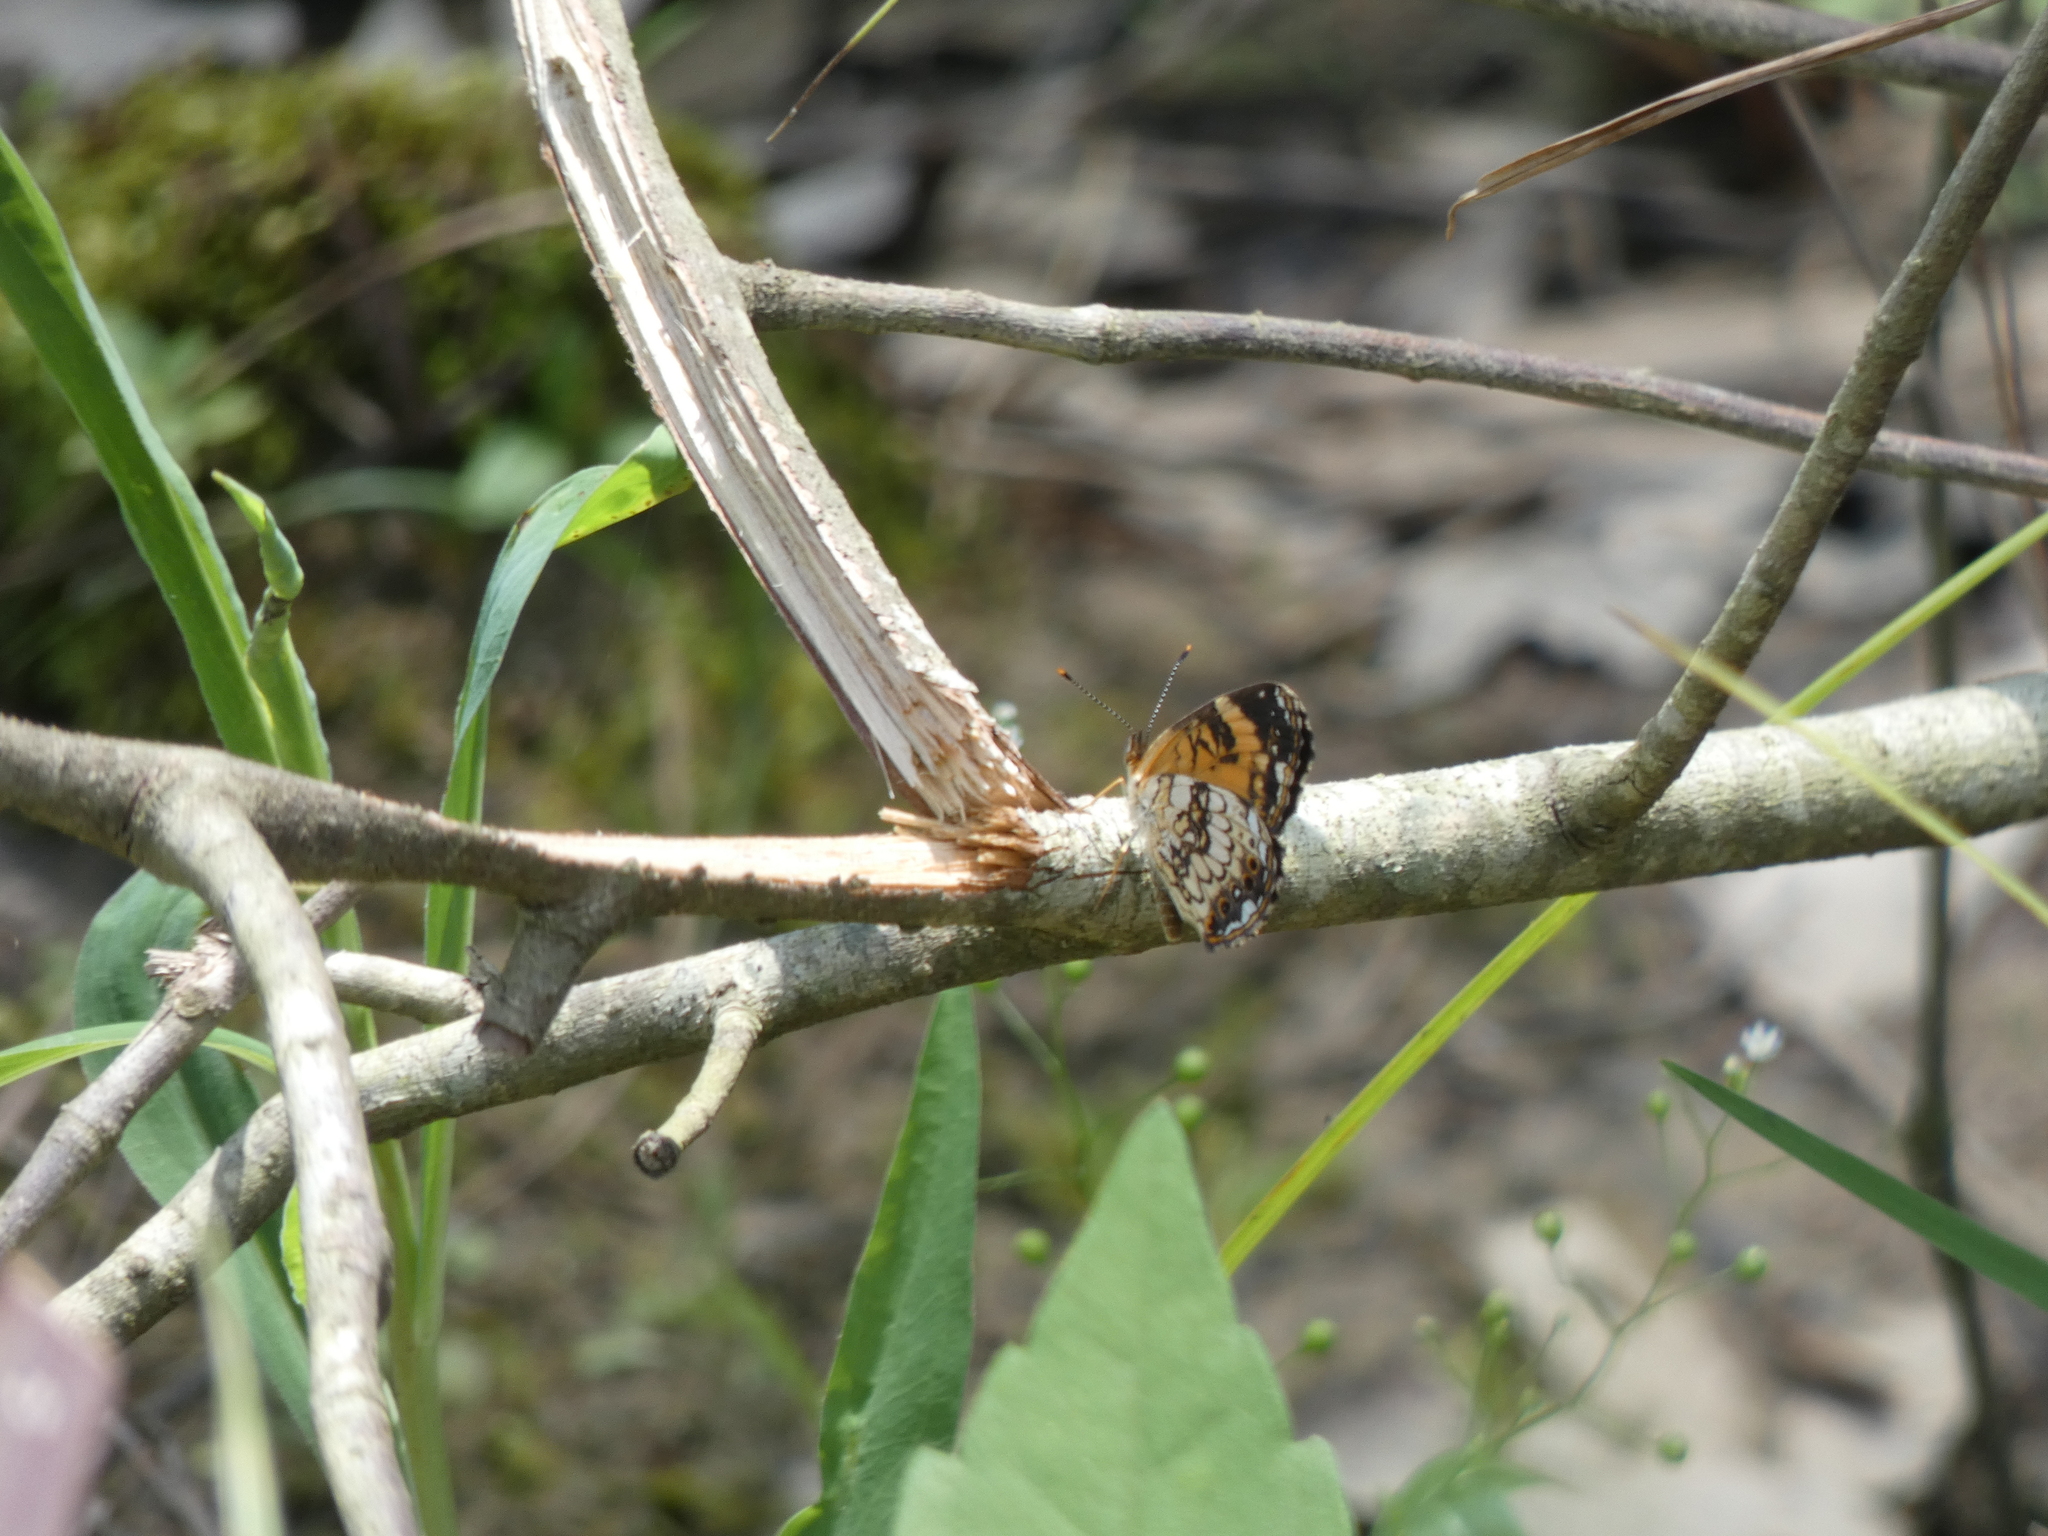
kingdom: Animalia
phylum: Arthropoda
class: Insecta
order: Lepidoptera
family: Nymphalidae
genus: Chlosyne
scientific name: Chlosyne nycteis
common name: Silvery checkerspot
